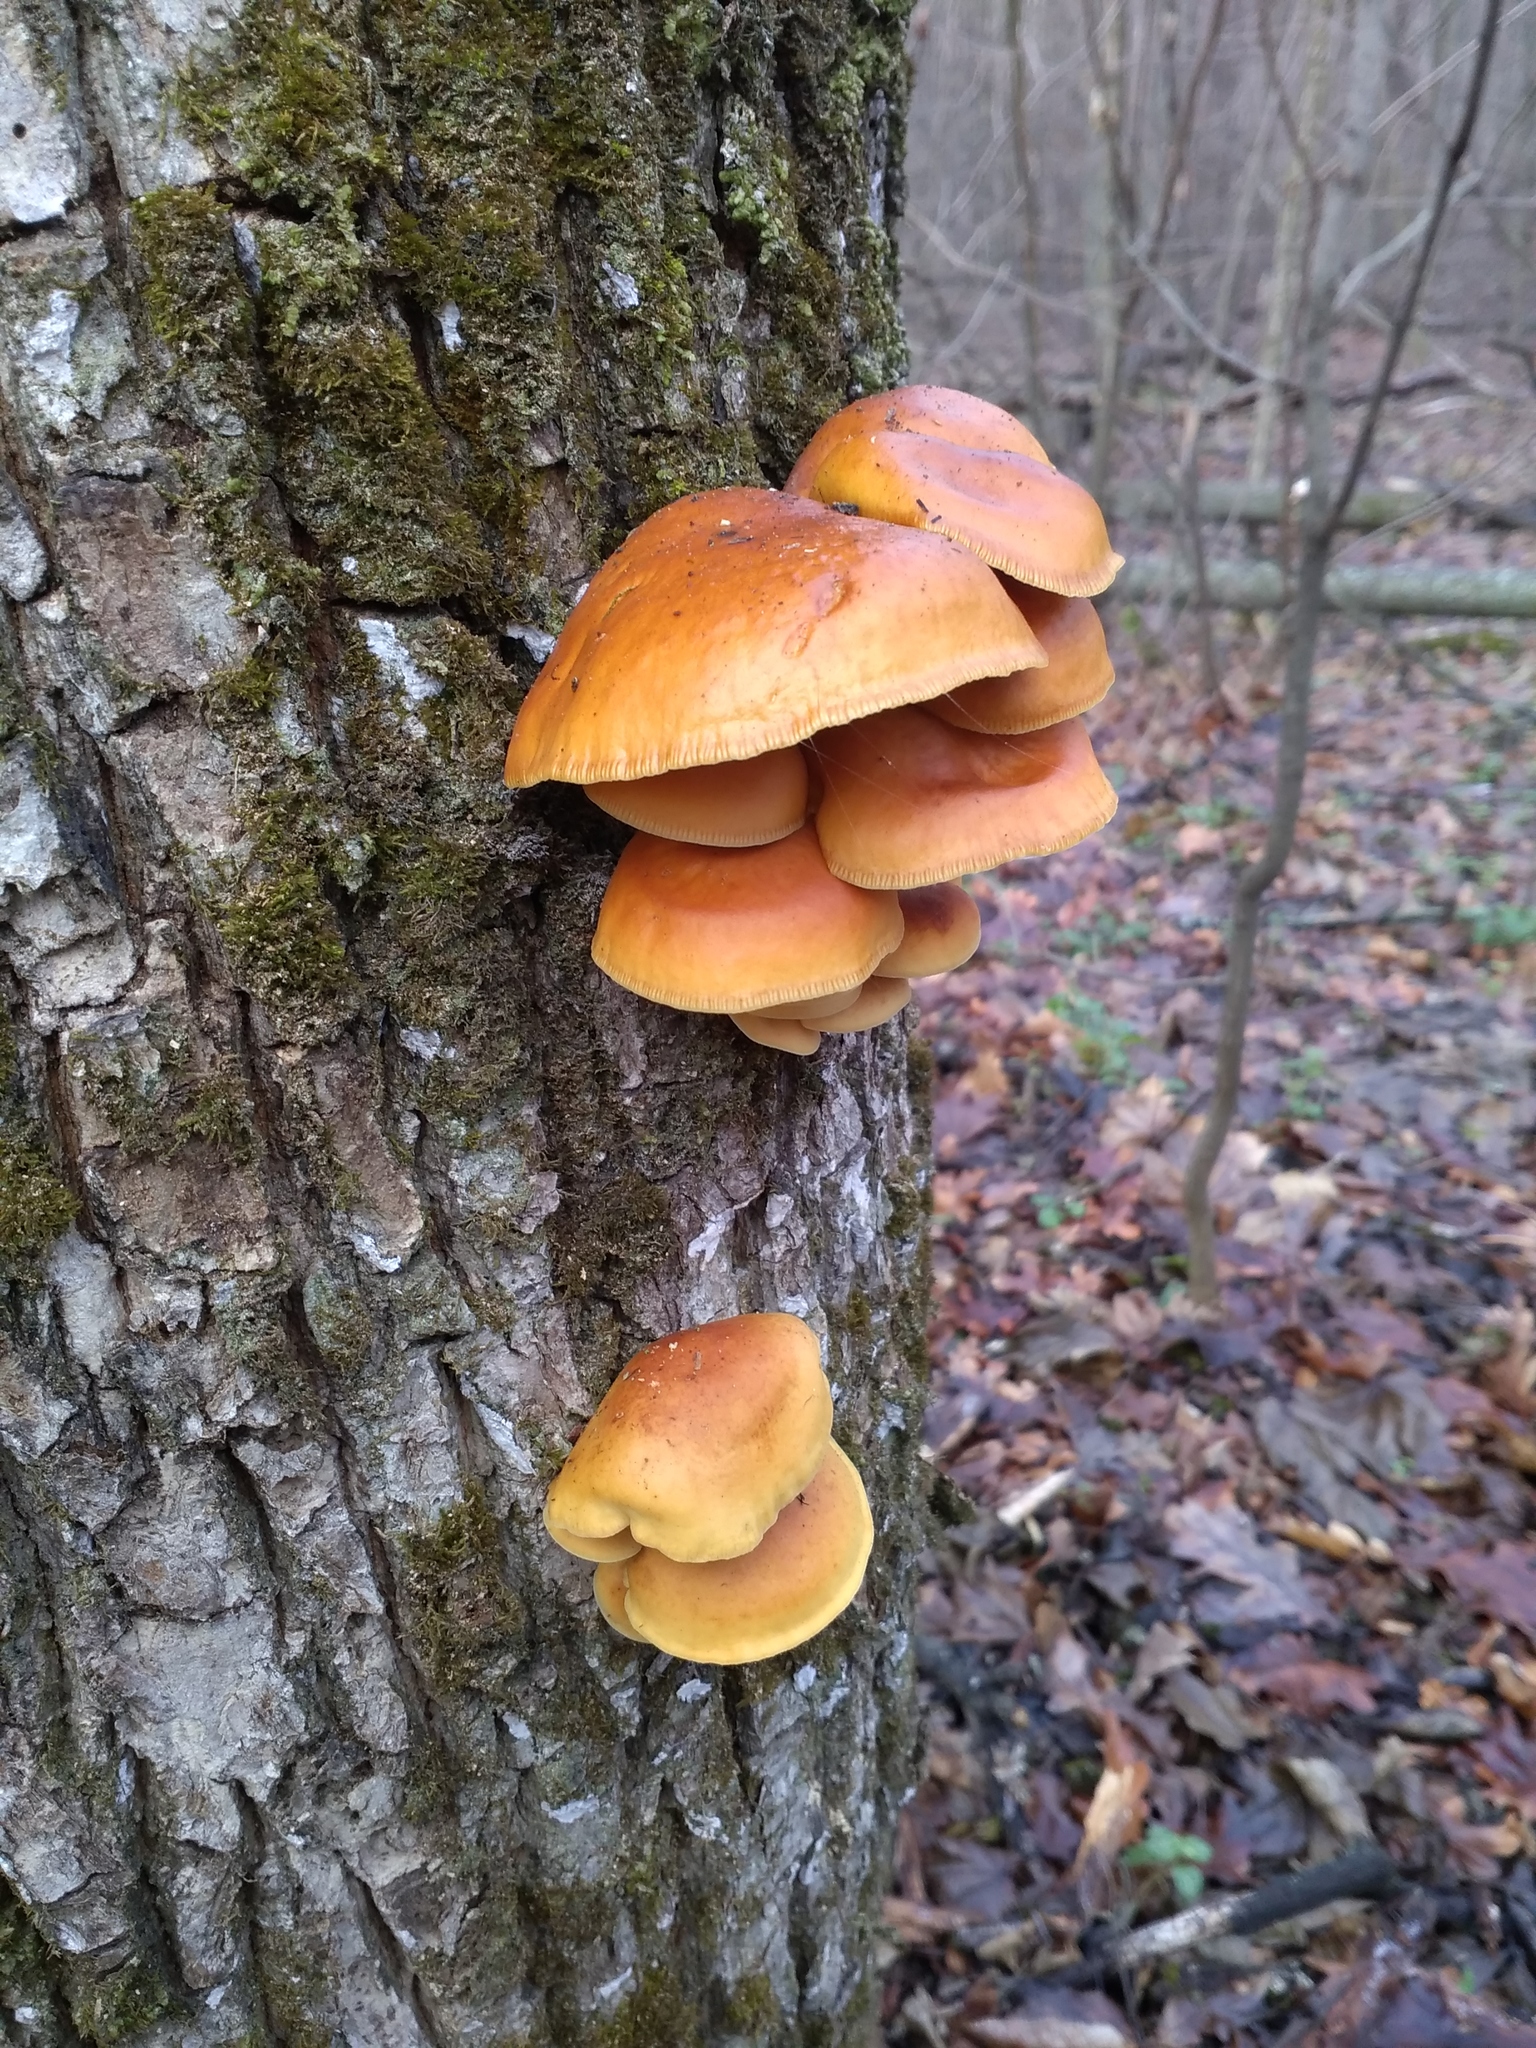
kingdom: Fungi
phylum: Basidiomycota
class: Agaricomycetes
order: Agaricales
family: Physalacriaceae
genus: Flammulina
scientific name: Flammulina
